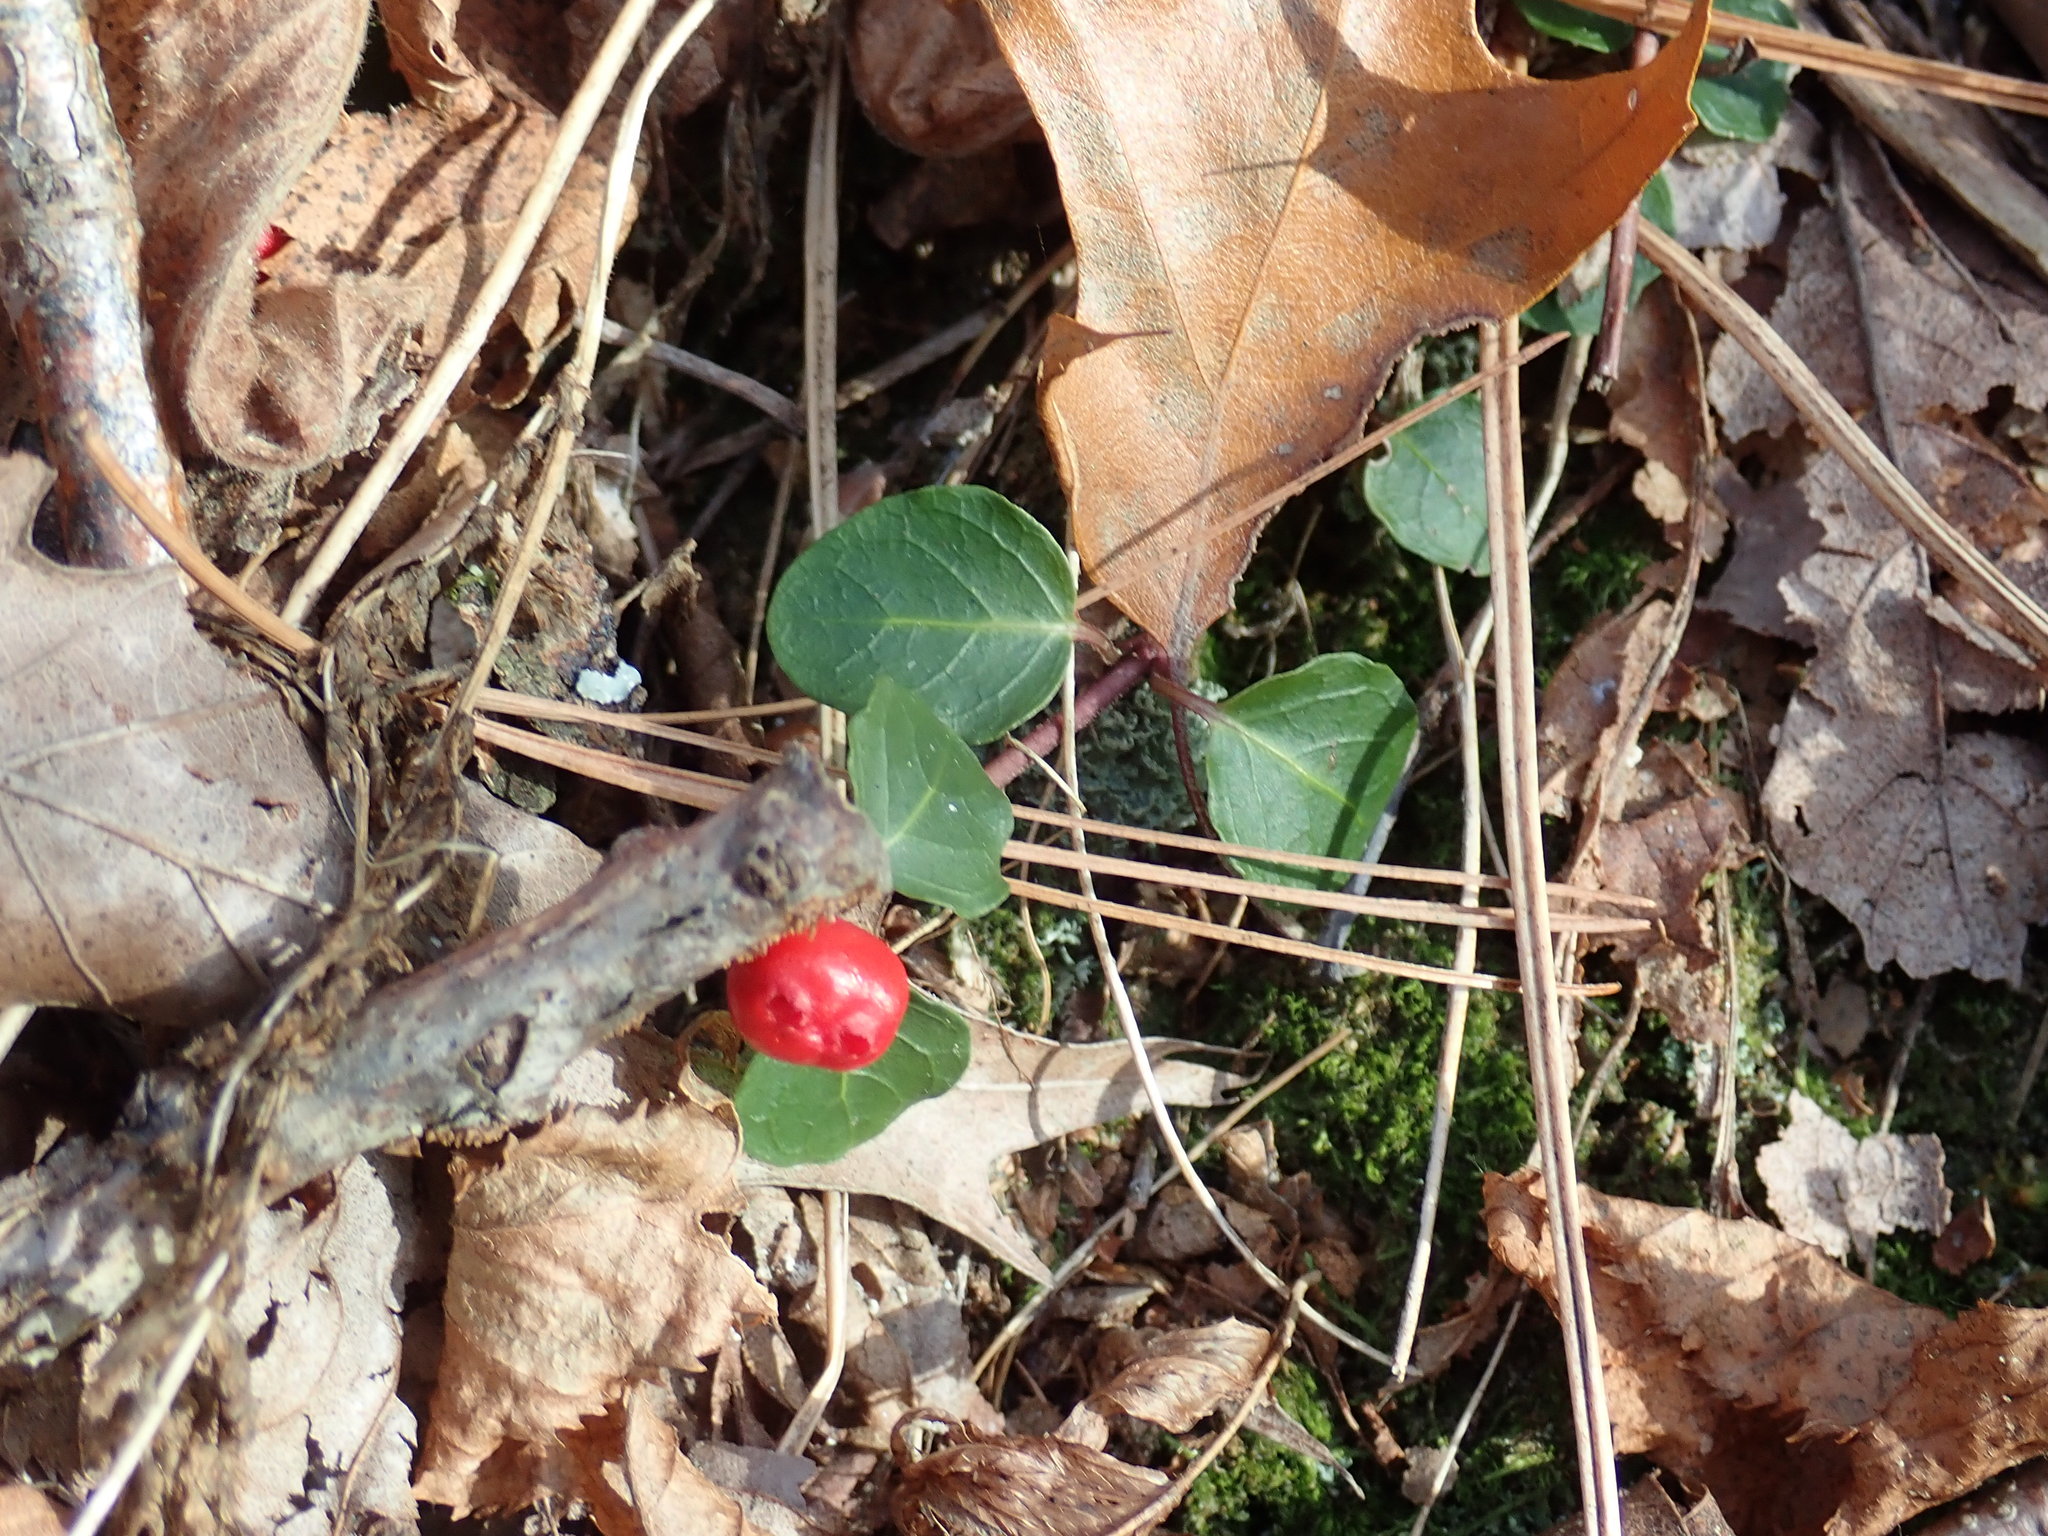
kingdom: Plantae
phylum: Tracheophyta
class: Magnoliopsida
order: Gentianales
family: Rubiaceae
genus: Mitchella
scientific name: Mitchella repens
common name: Partridge-berry
